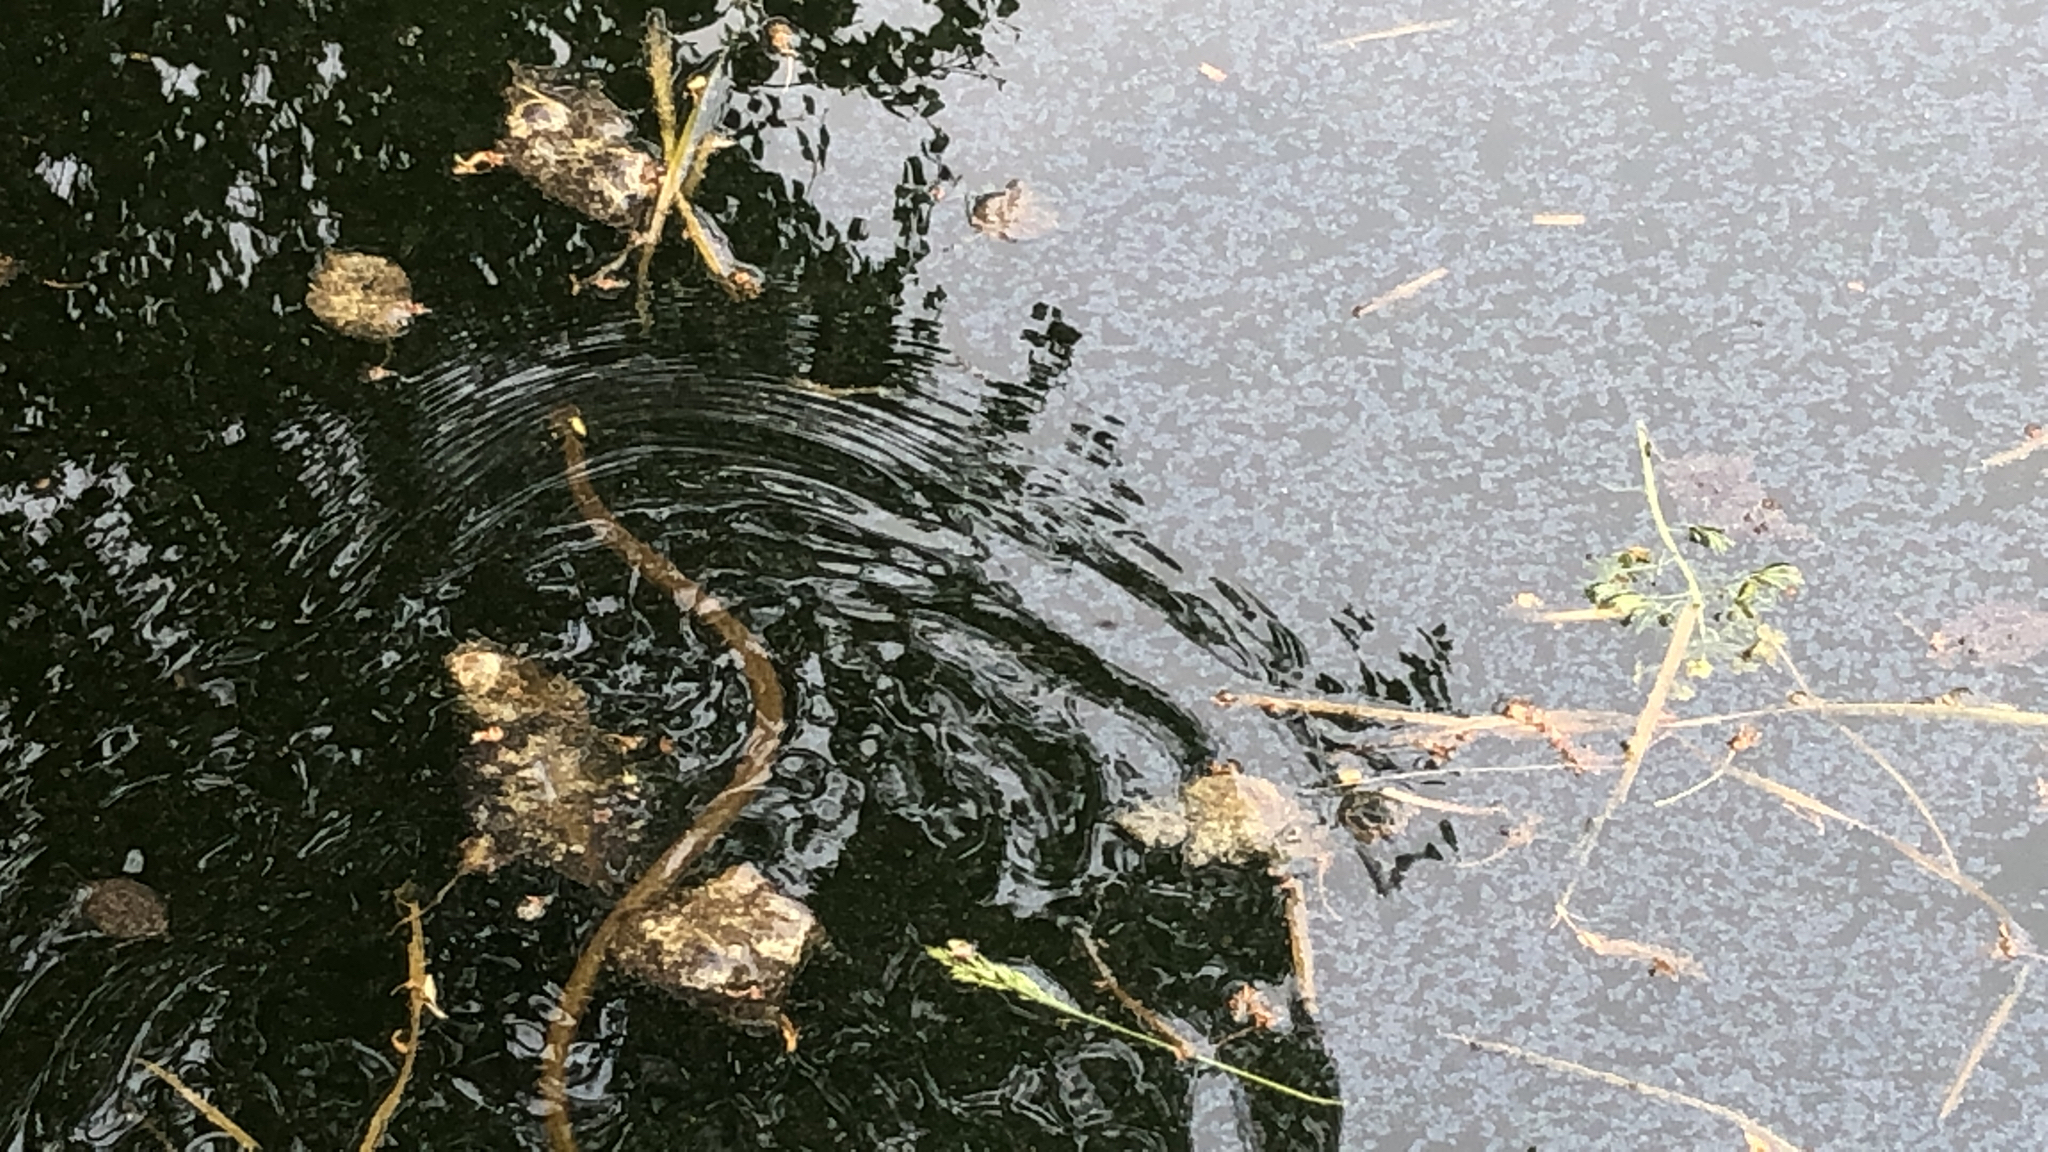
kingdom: Animalia
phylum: Chordata
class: Squamata
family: Colubridae
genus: Natrix
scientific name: Natrix natrix
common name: Grass snake
